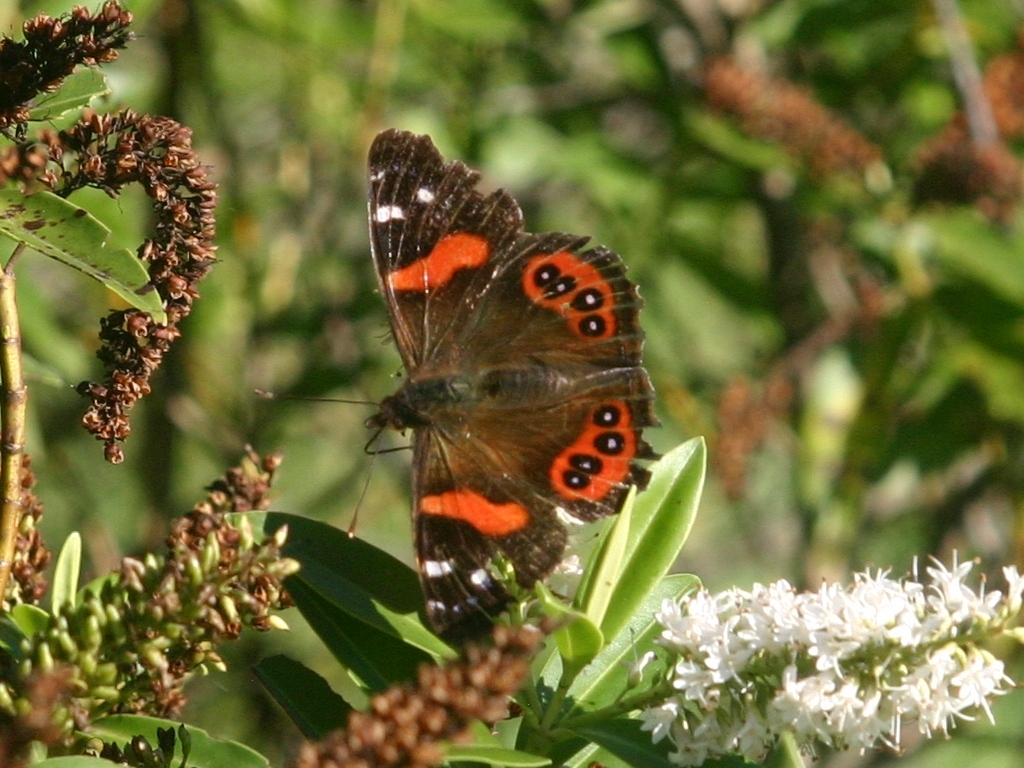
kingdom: Animalia
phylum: Arthropoda
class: Insecta
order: Lepidoptera
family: Nymphalidae
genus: Vanessa
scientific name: Vanessa gonerilla
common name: New zealand red admiral
